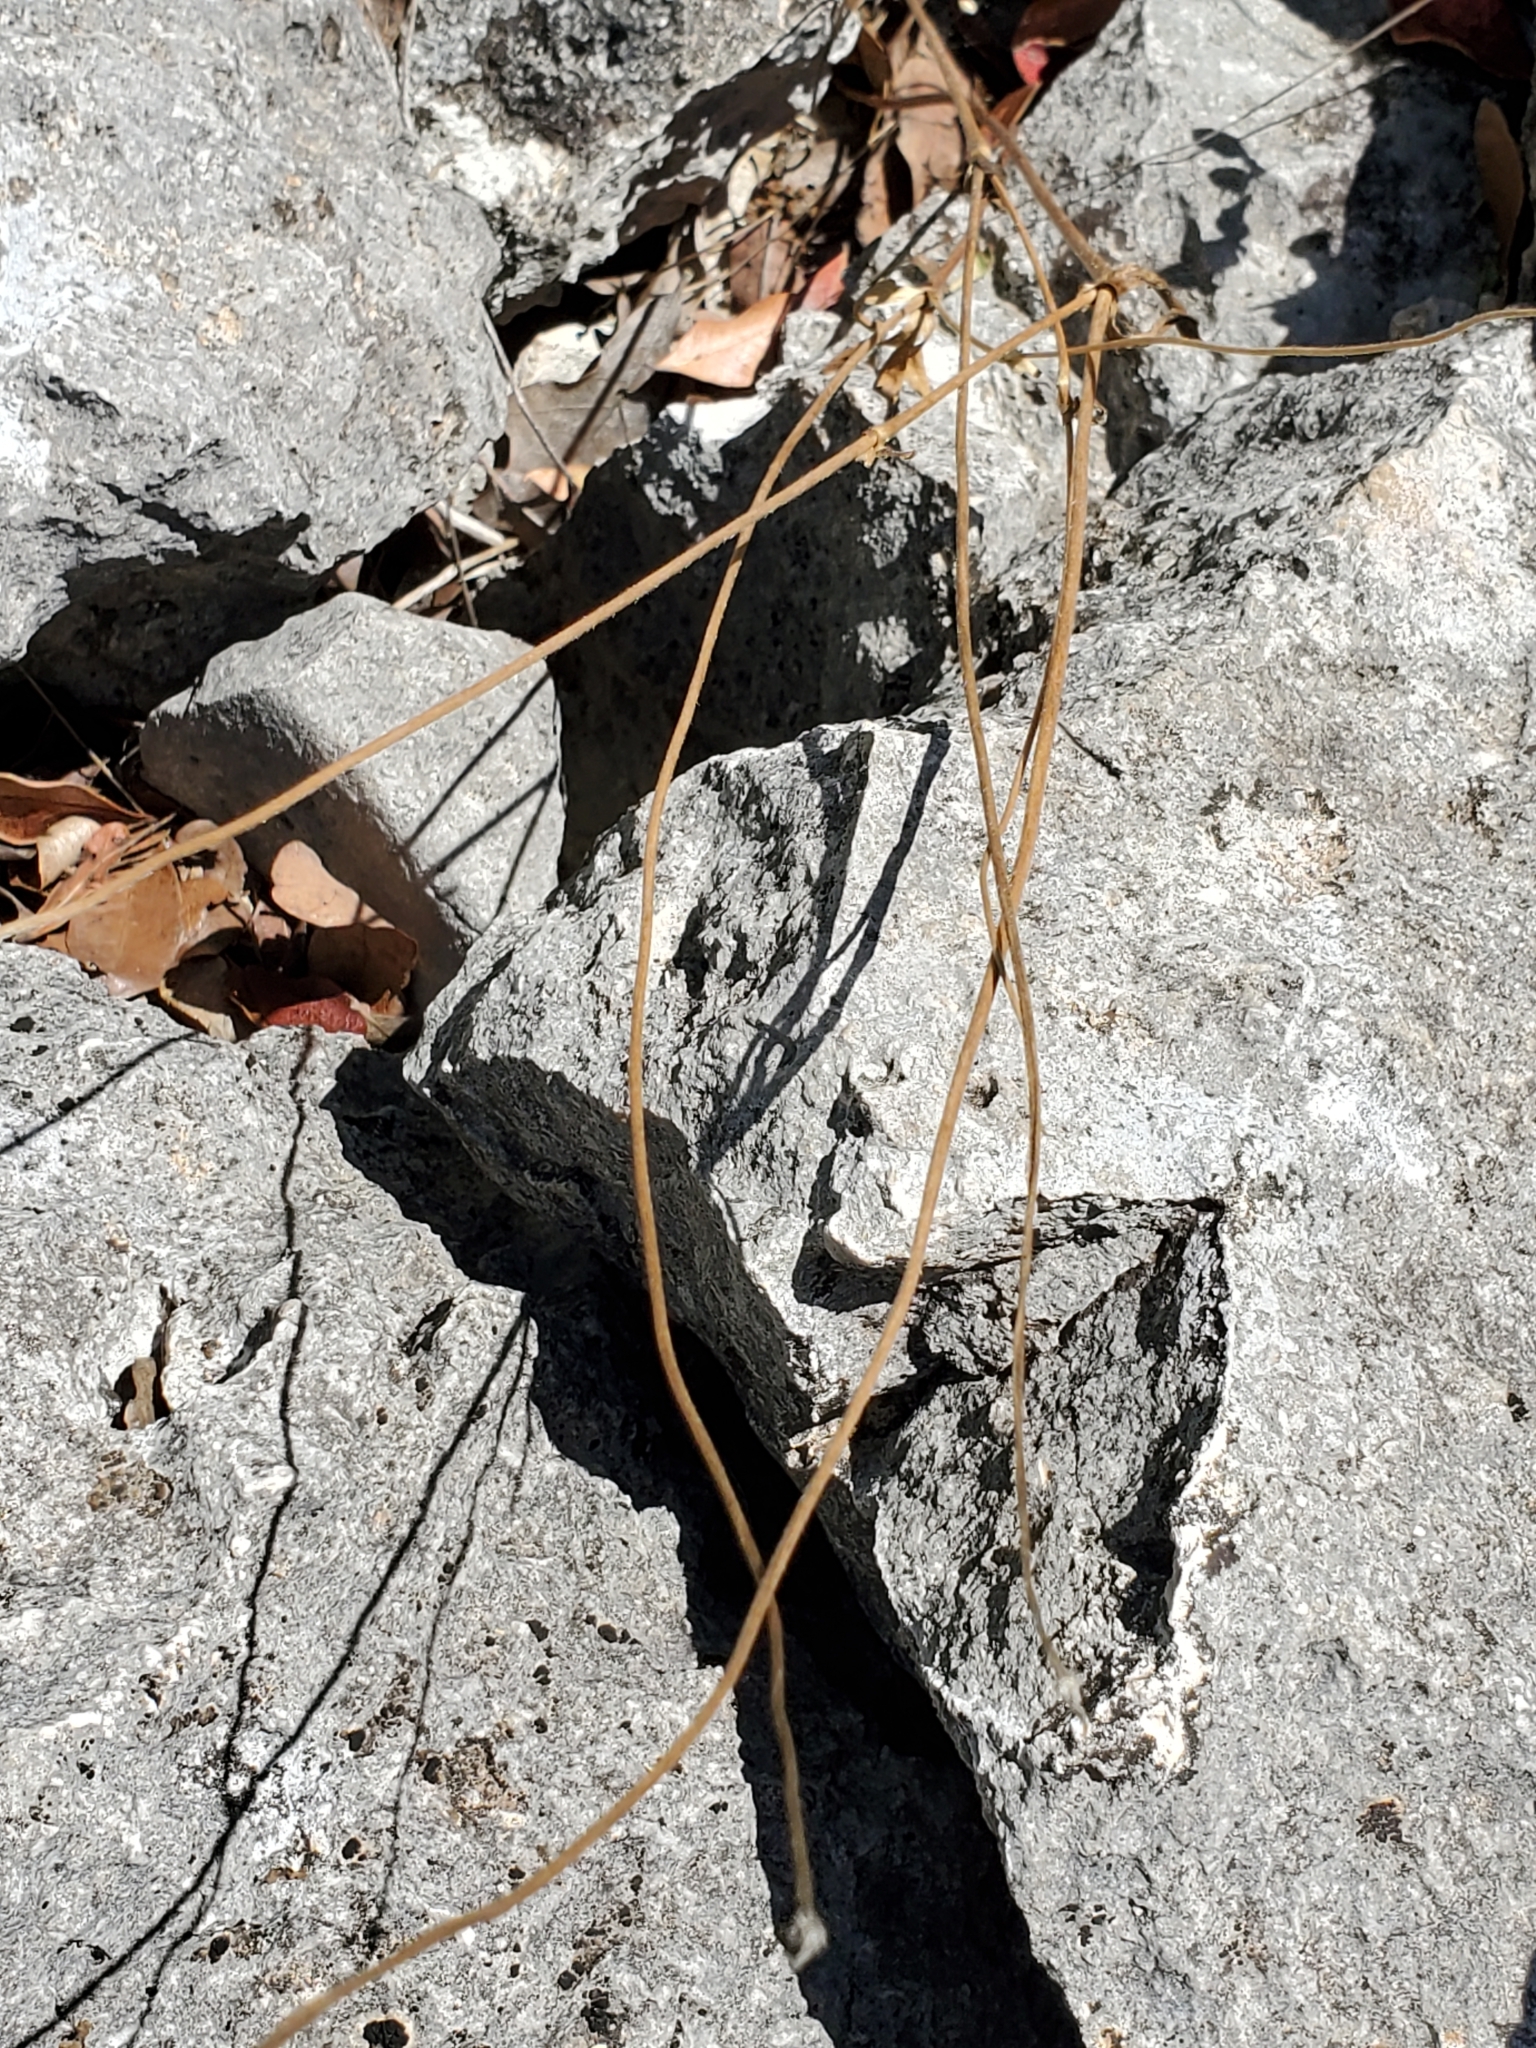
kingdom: Plantae
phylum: Tracheophyta
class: Magnoliopsida
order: Ranunculales
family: Ranunculaceae
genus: Anemone
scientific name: Anemone edwardsiana
